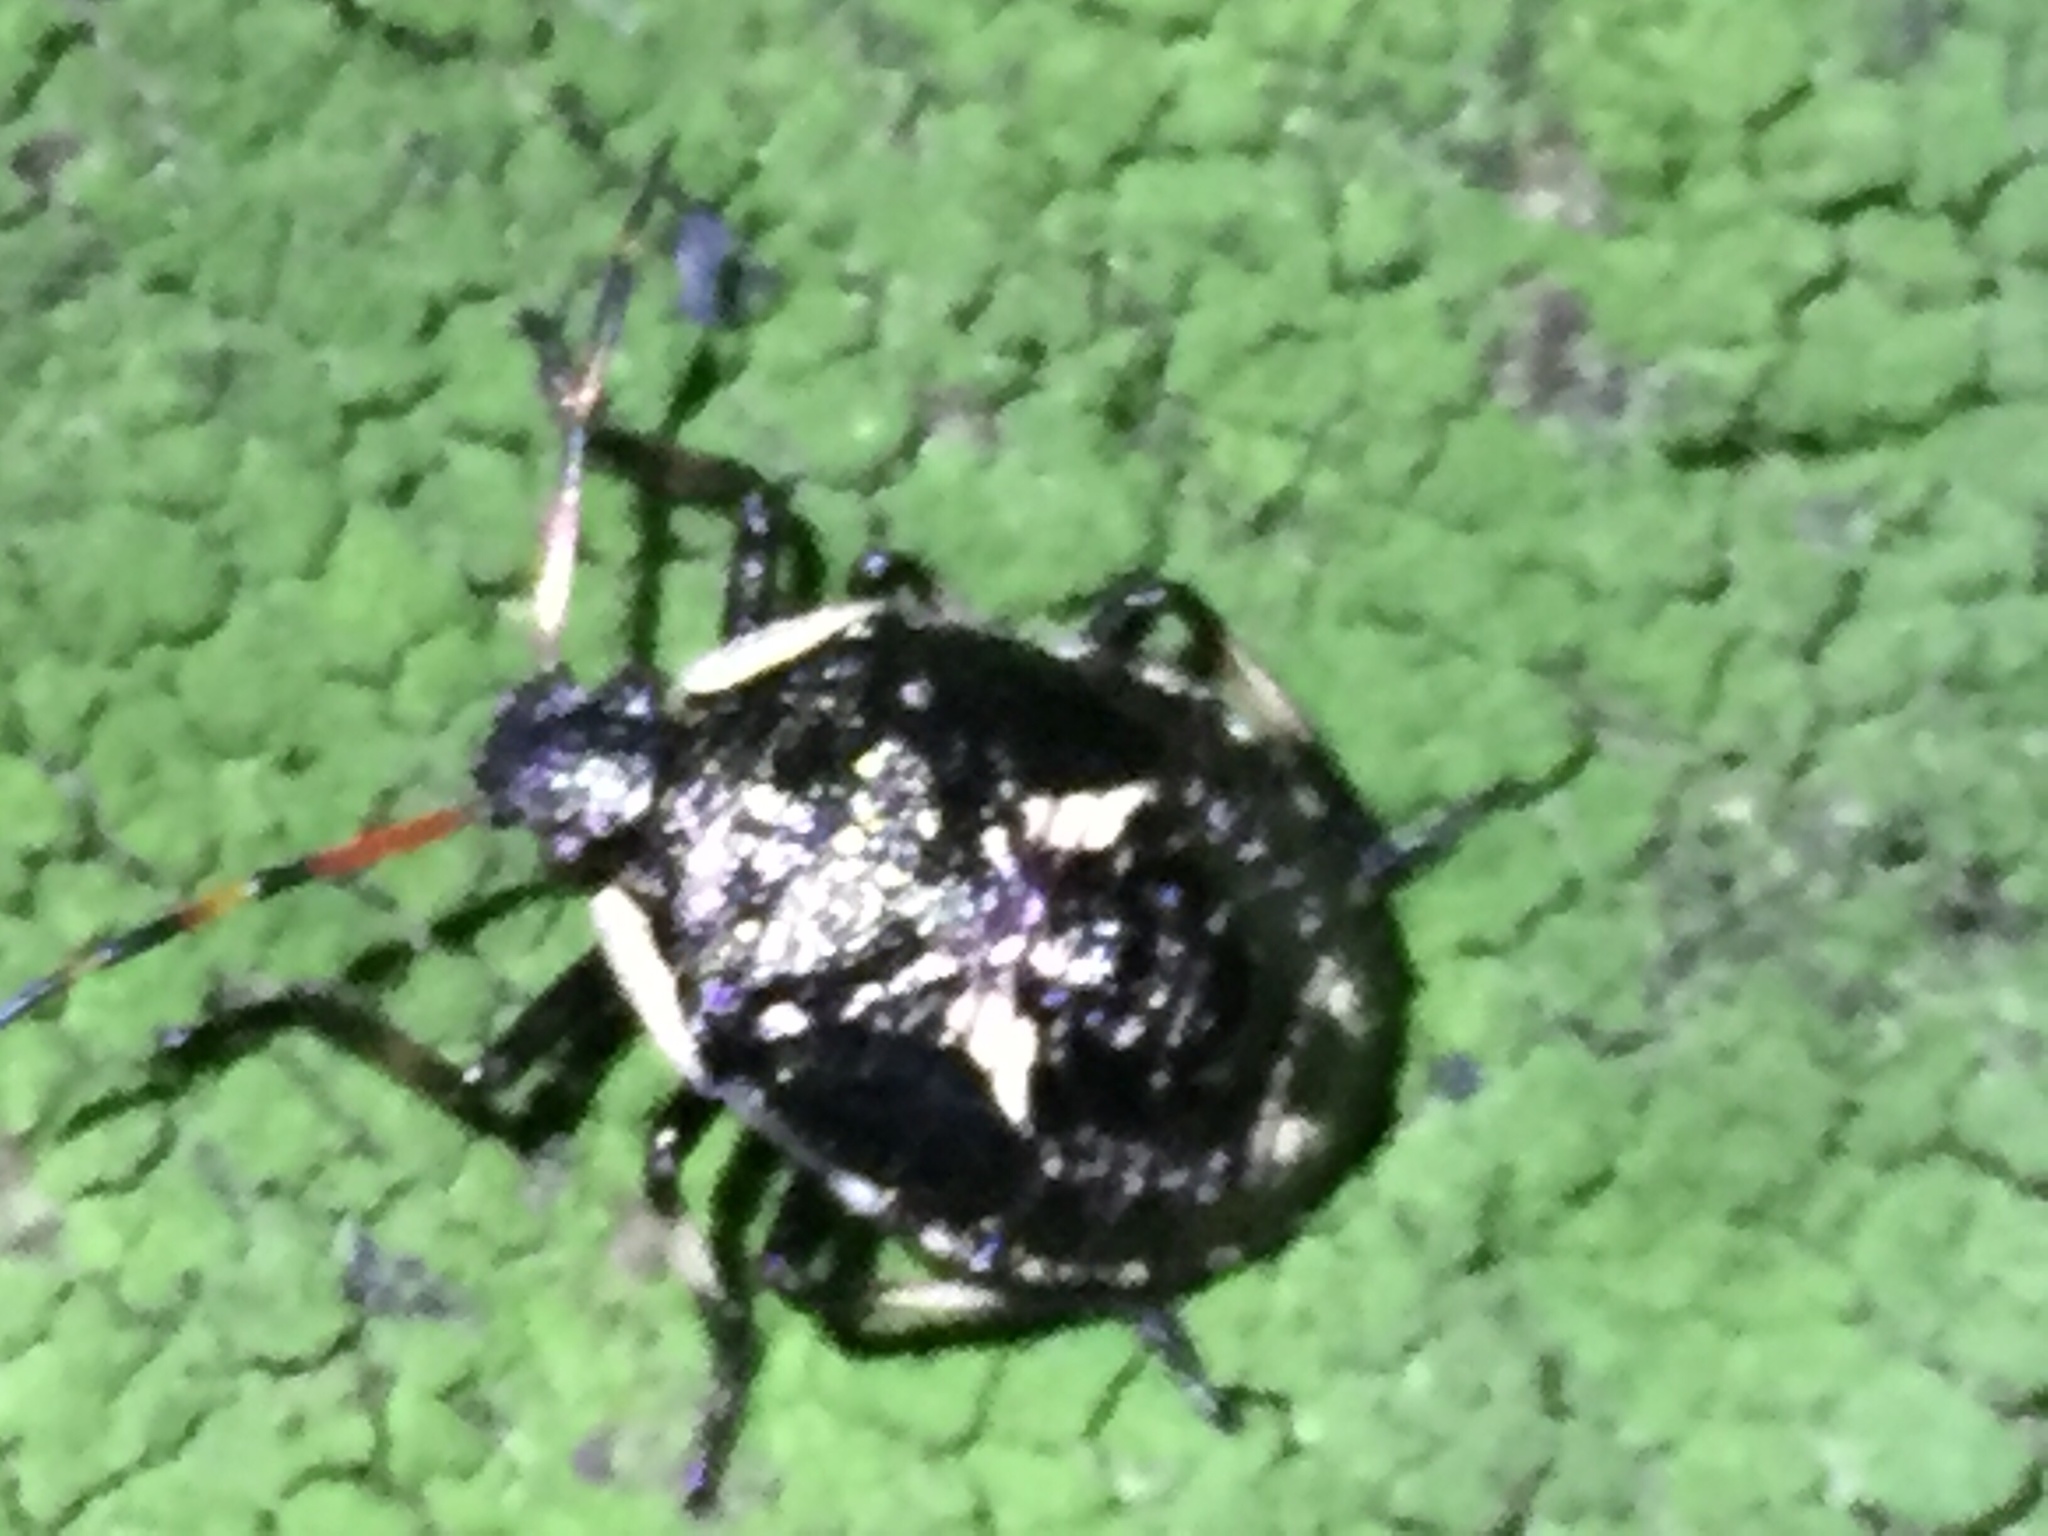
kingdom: Animalia
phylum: Arthropoda
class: Insecta
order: Hemiptera
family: Pentatomidae
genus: Cermatulus
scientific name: Cermatulus nasalis
